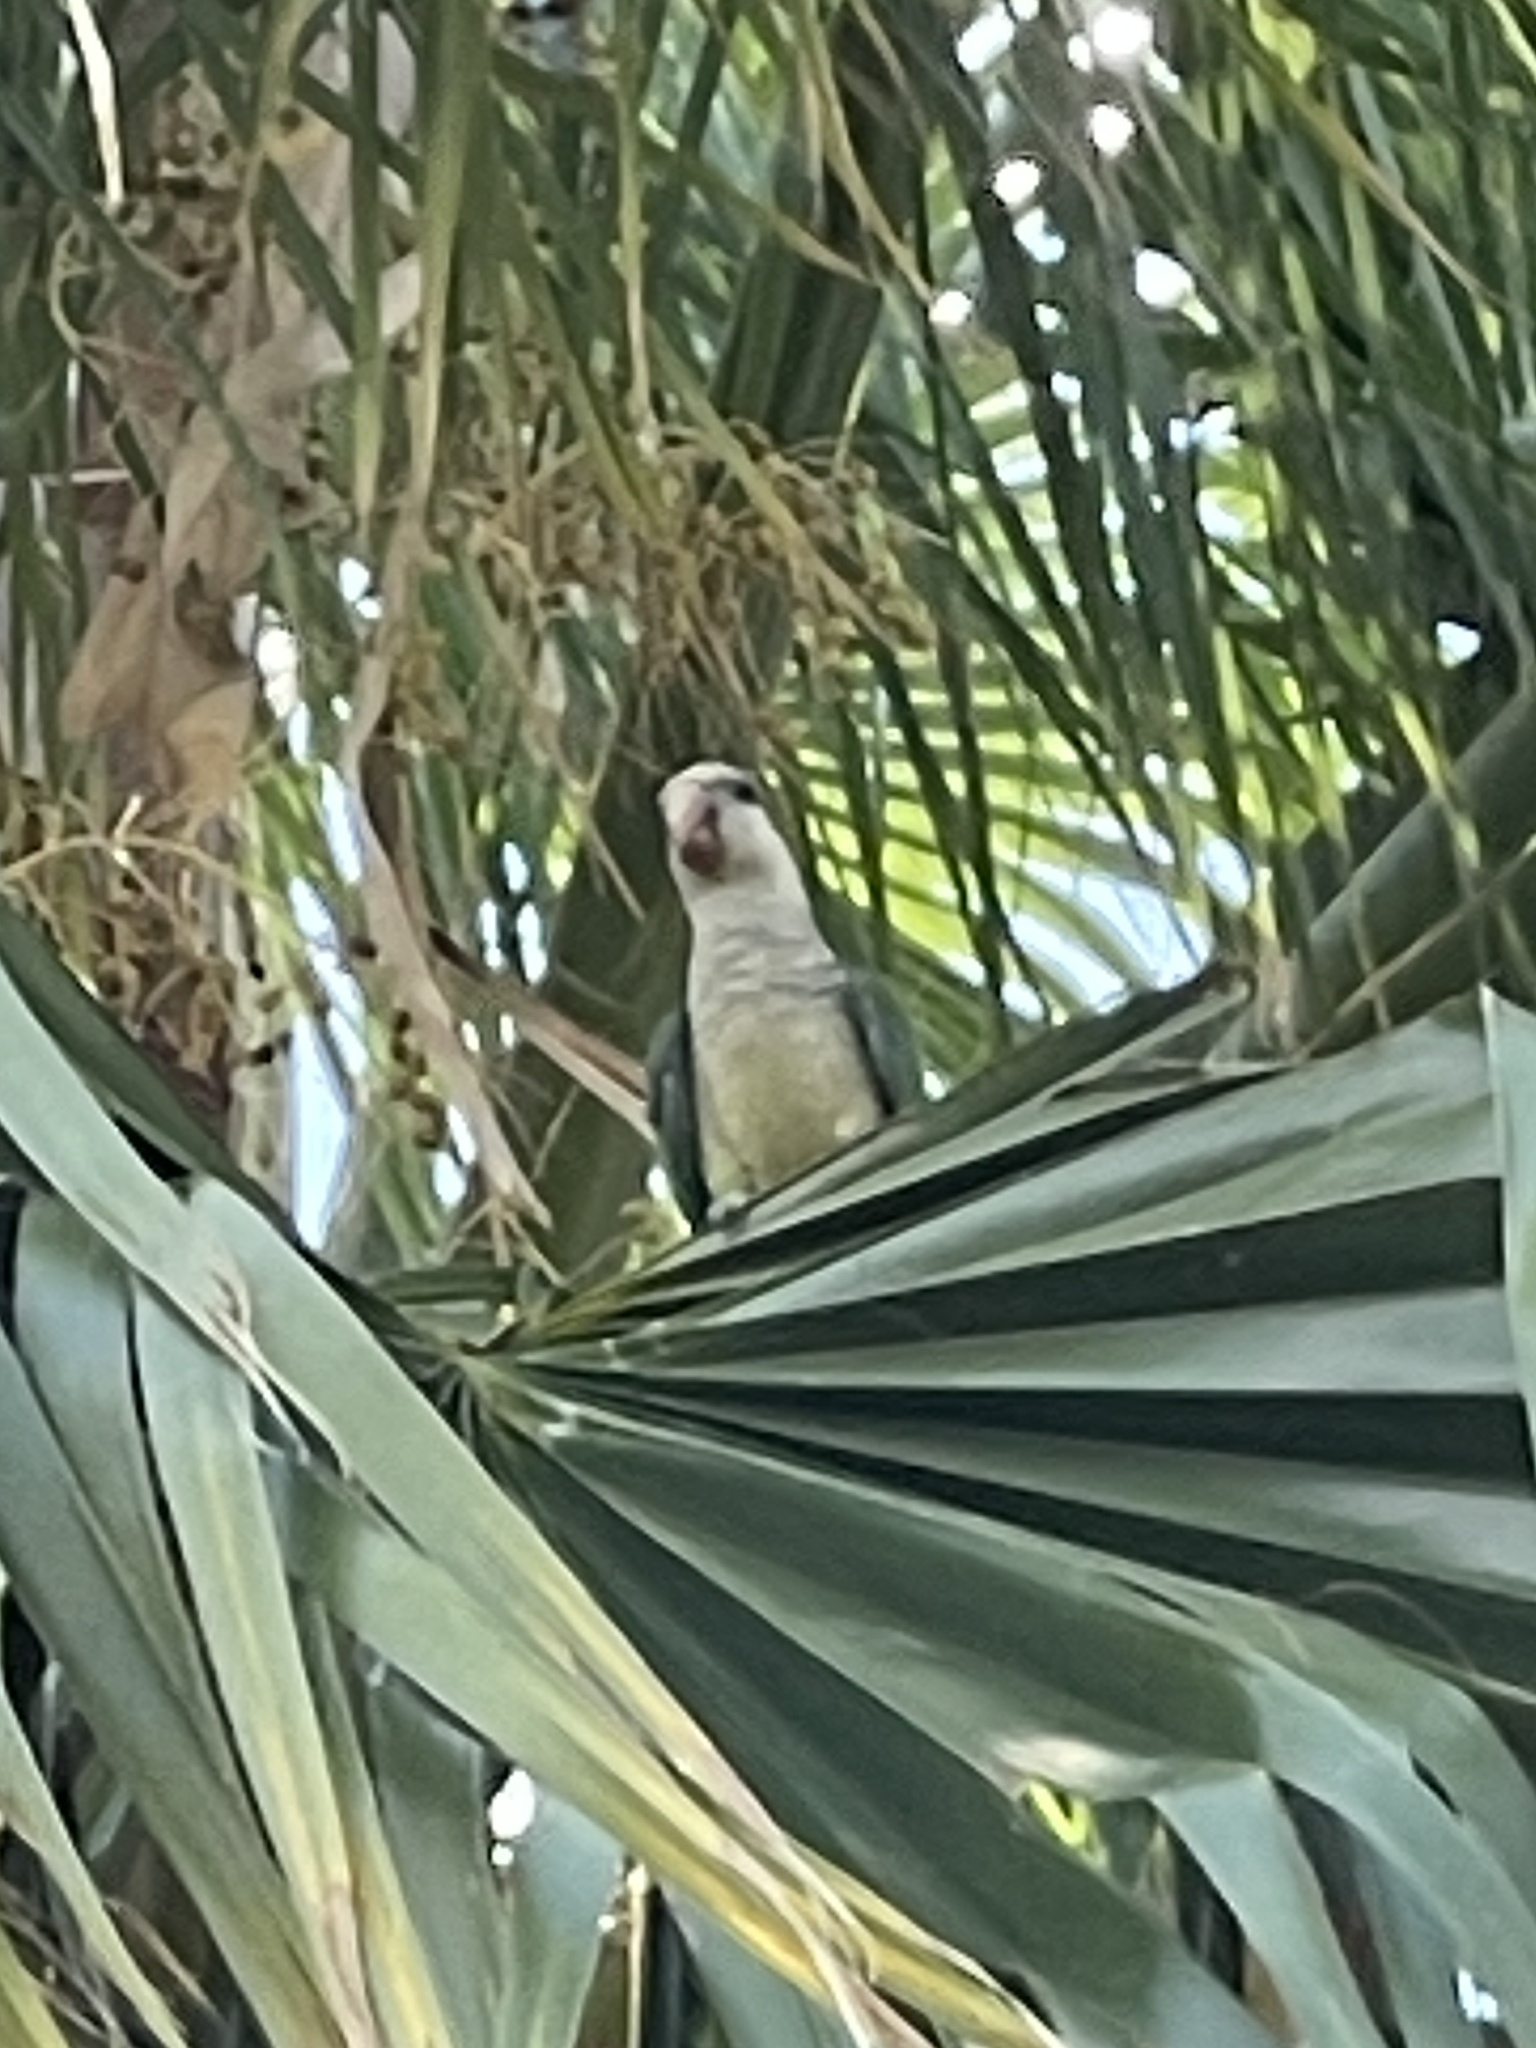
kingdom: Animalia
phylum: Chordata
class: Aves
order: Psittaciformes
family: Psittacidae
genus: Myiopsitta
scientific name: Myiopsitta monachus
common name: Monk parakeet
